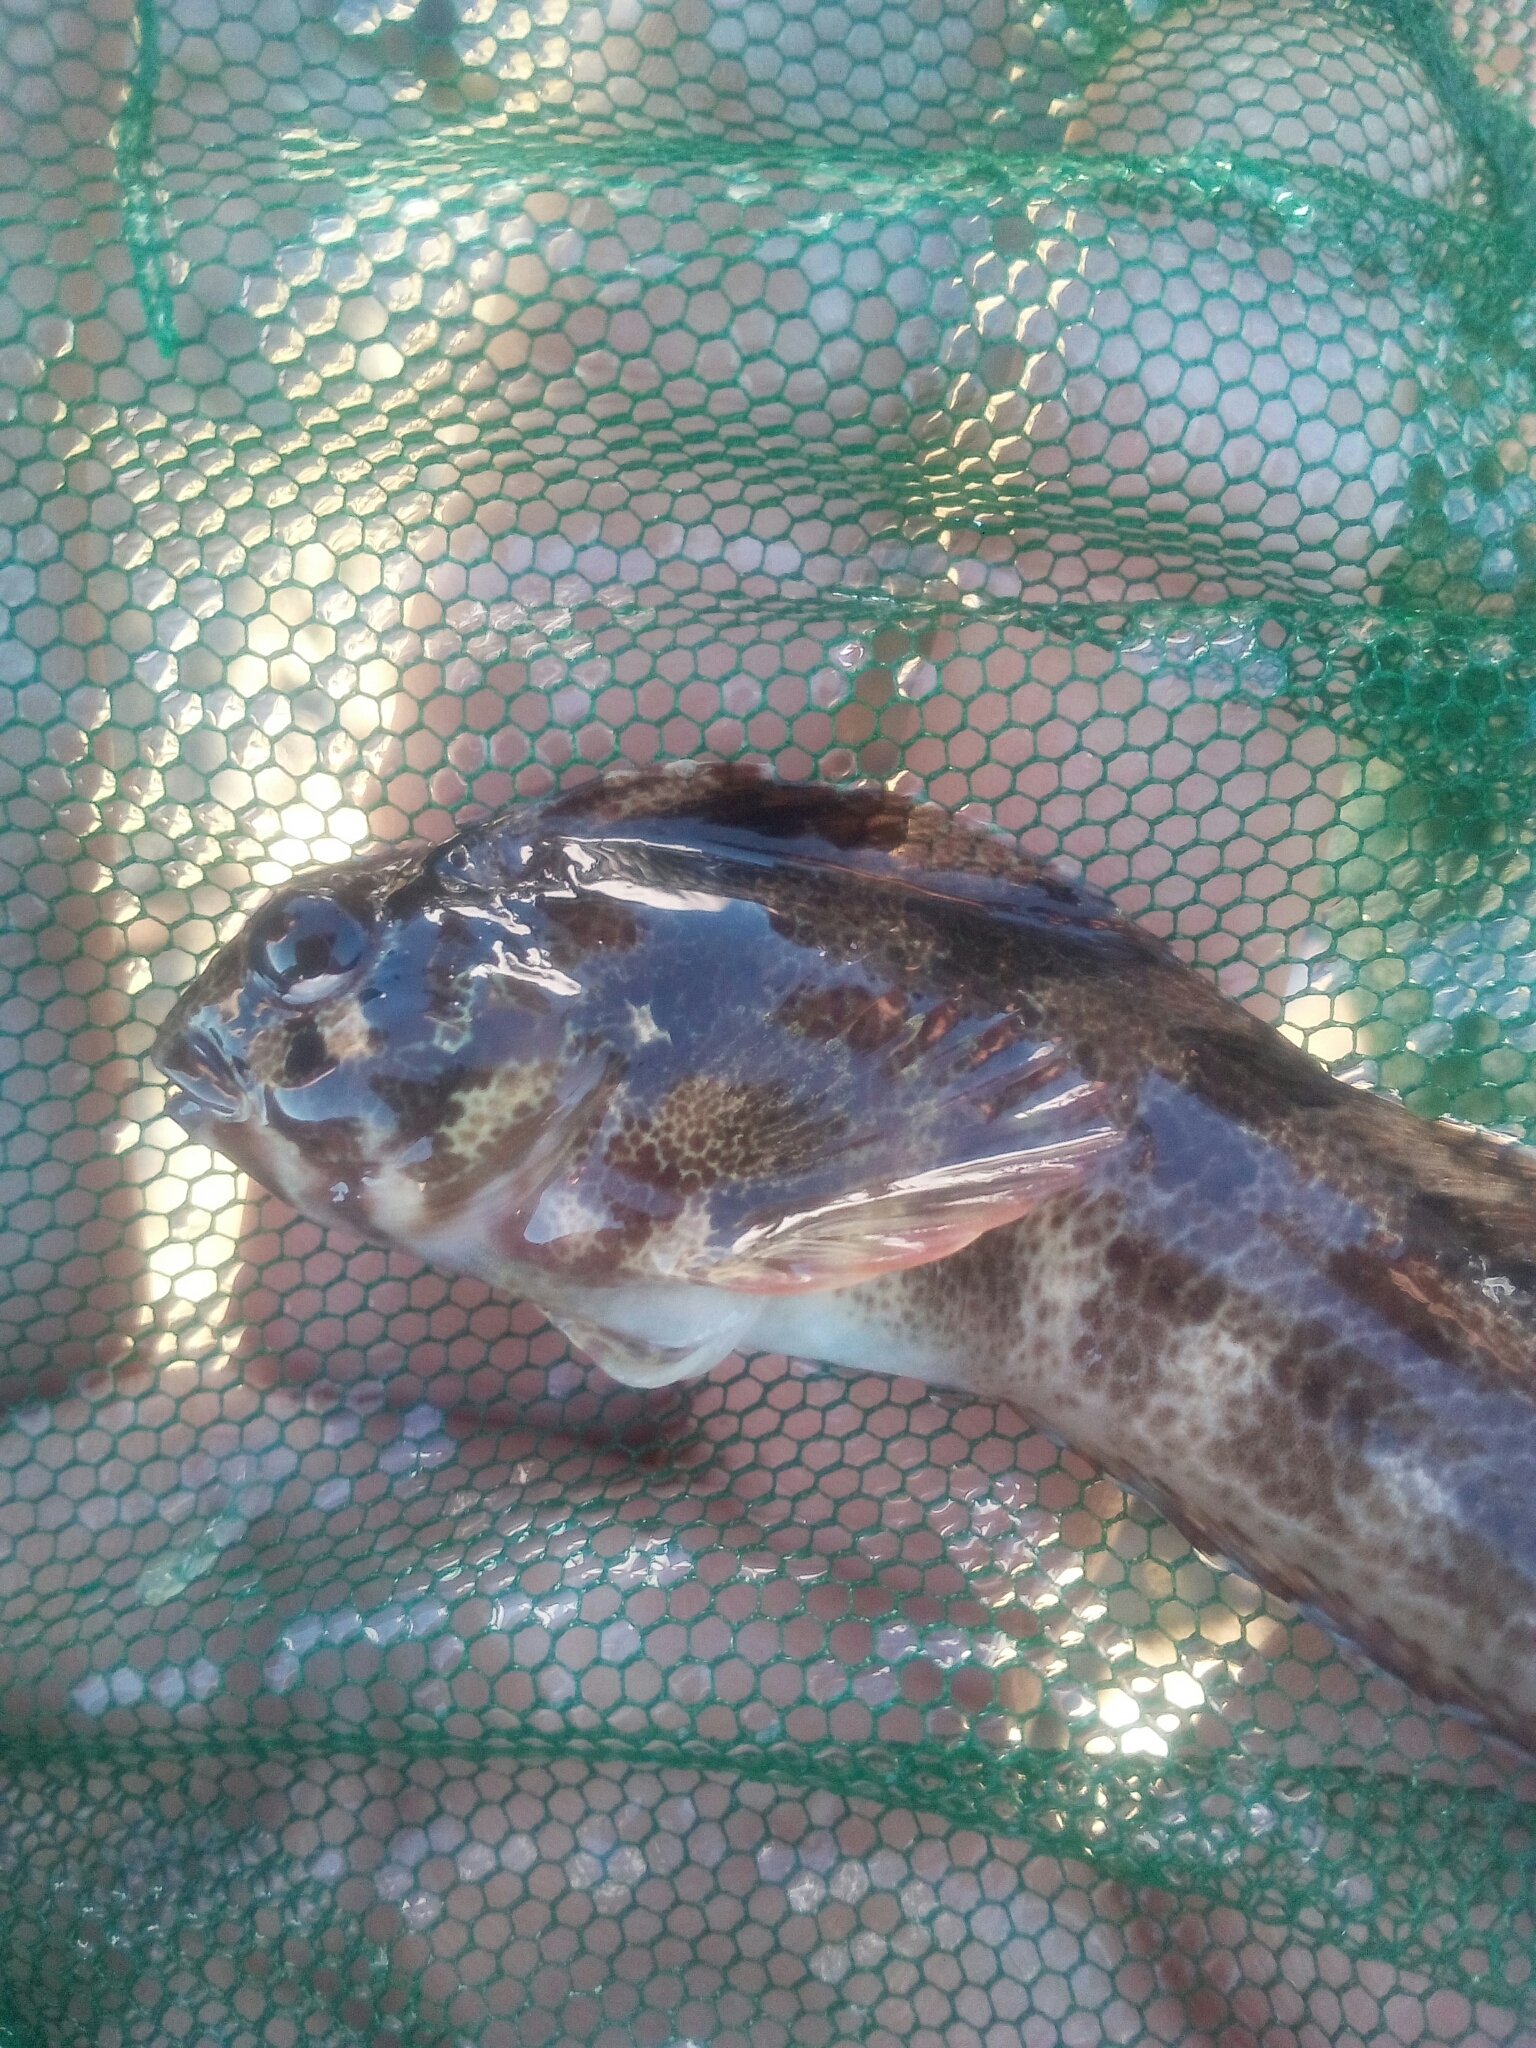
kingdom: Animalia
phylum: Chordata
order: Perciformes
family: Blenniidae
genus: Parablennius
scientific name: Parablennius gattorugine
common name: Tompot blenny
